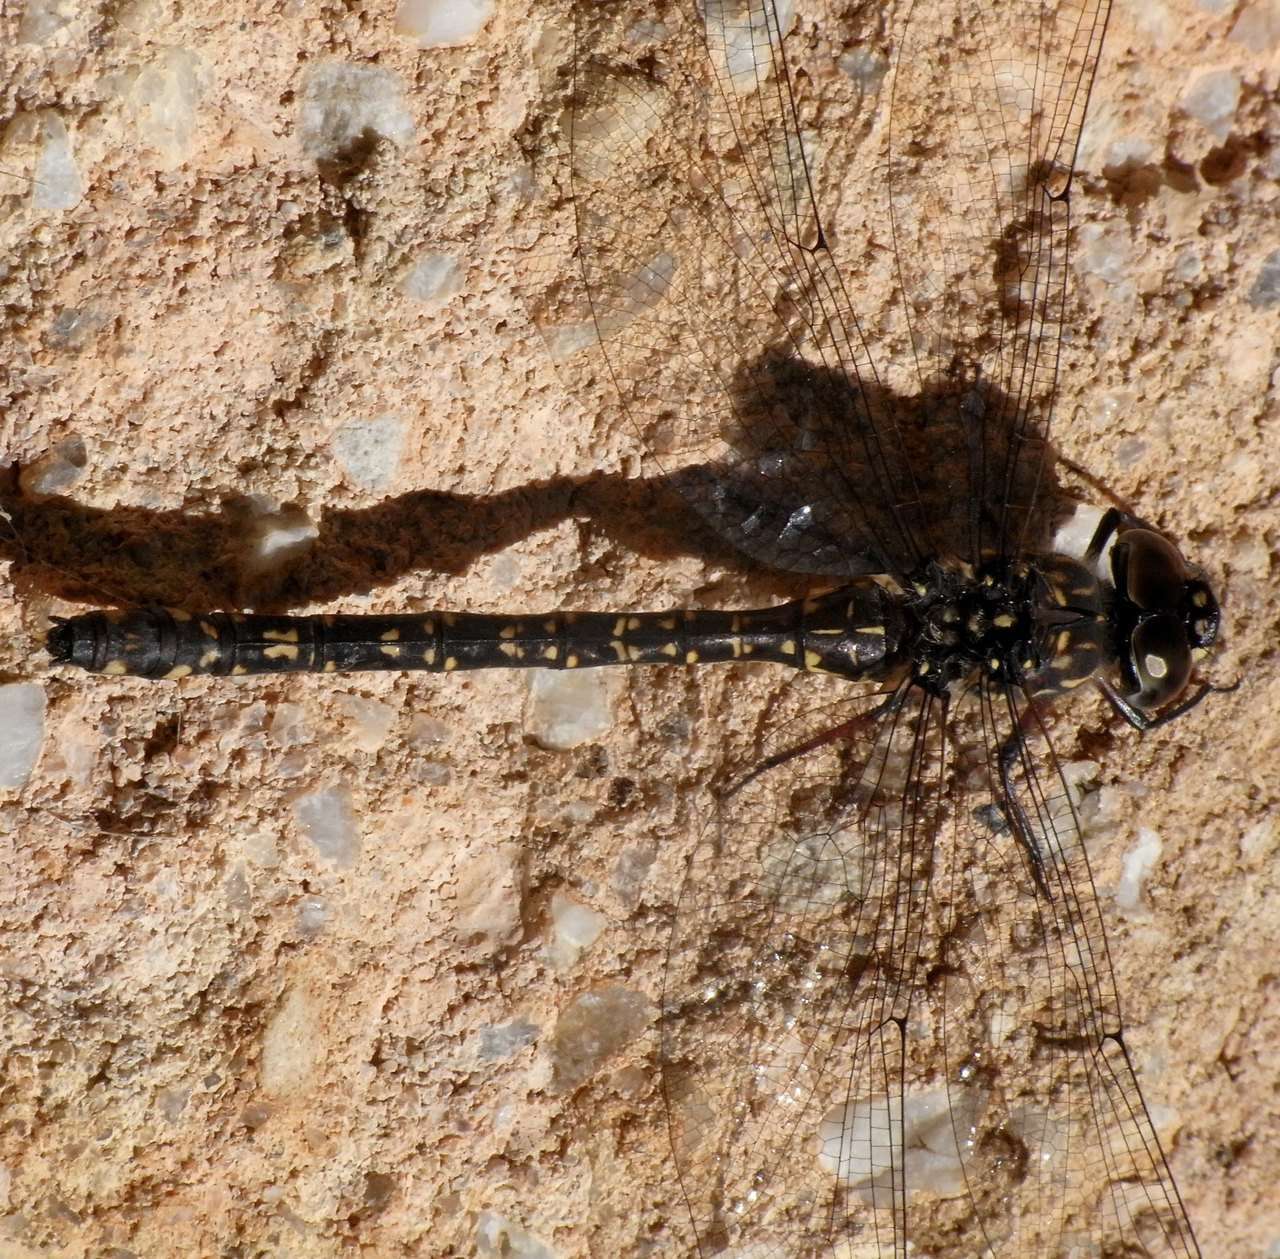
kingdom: Animalia
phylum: Arthropoda
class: Insecta
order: Odonata
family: Aeshnidae
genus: Austroaeschna
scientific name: Austroaeschna multipunctata
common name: Multi-spotted darner
